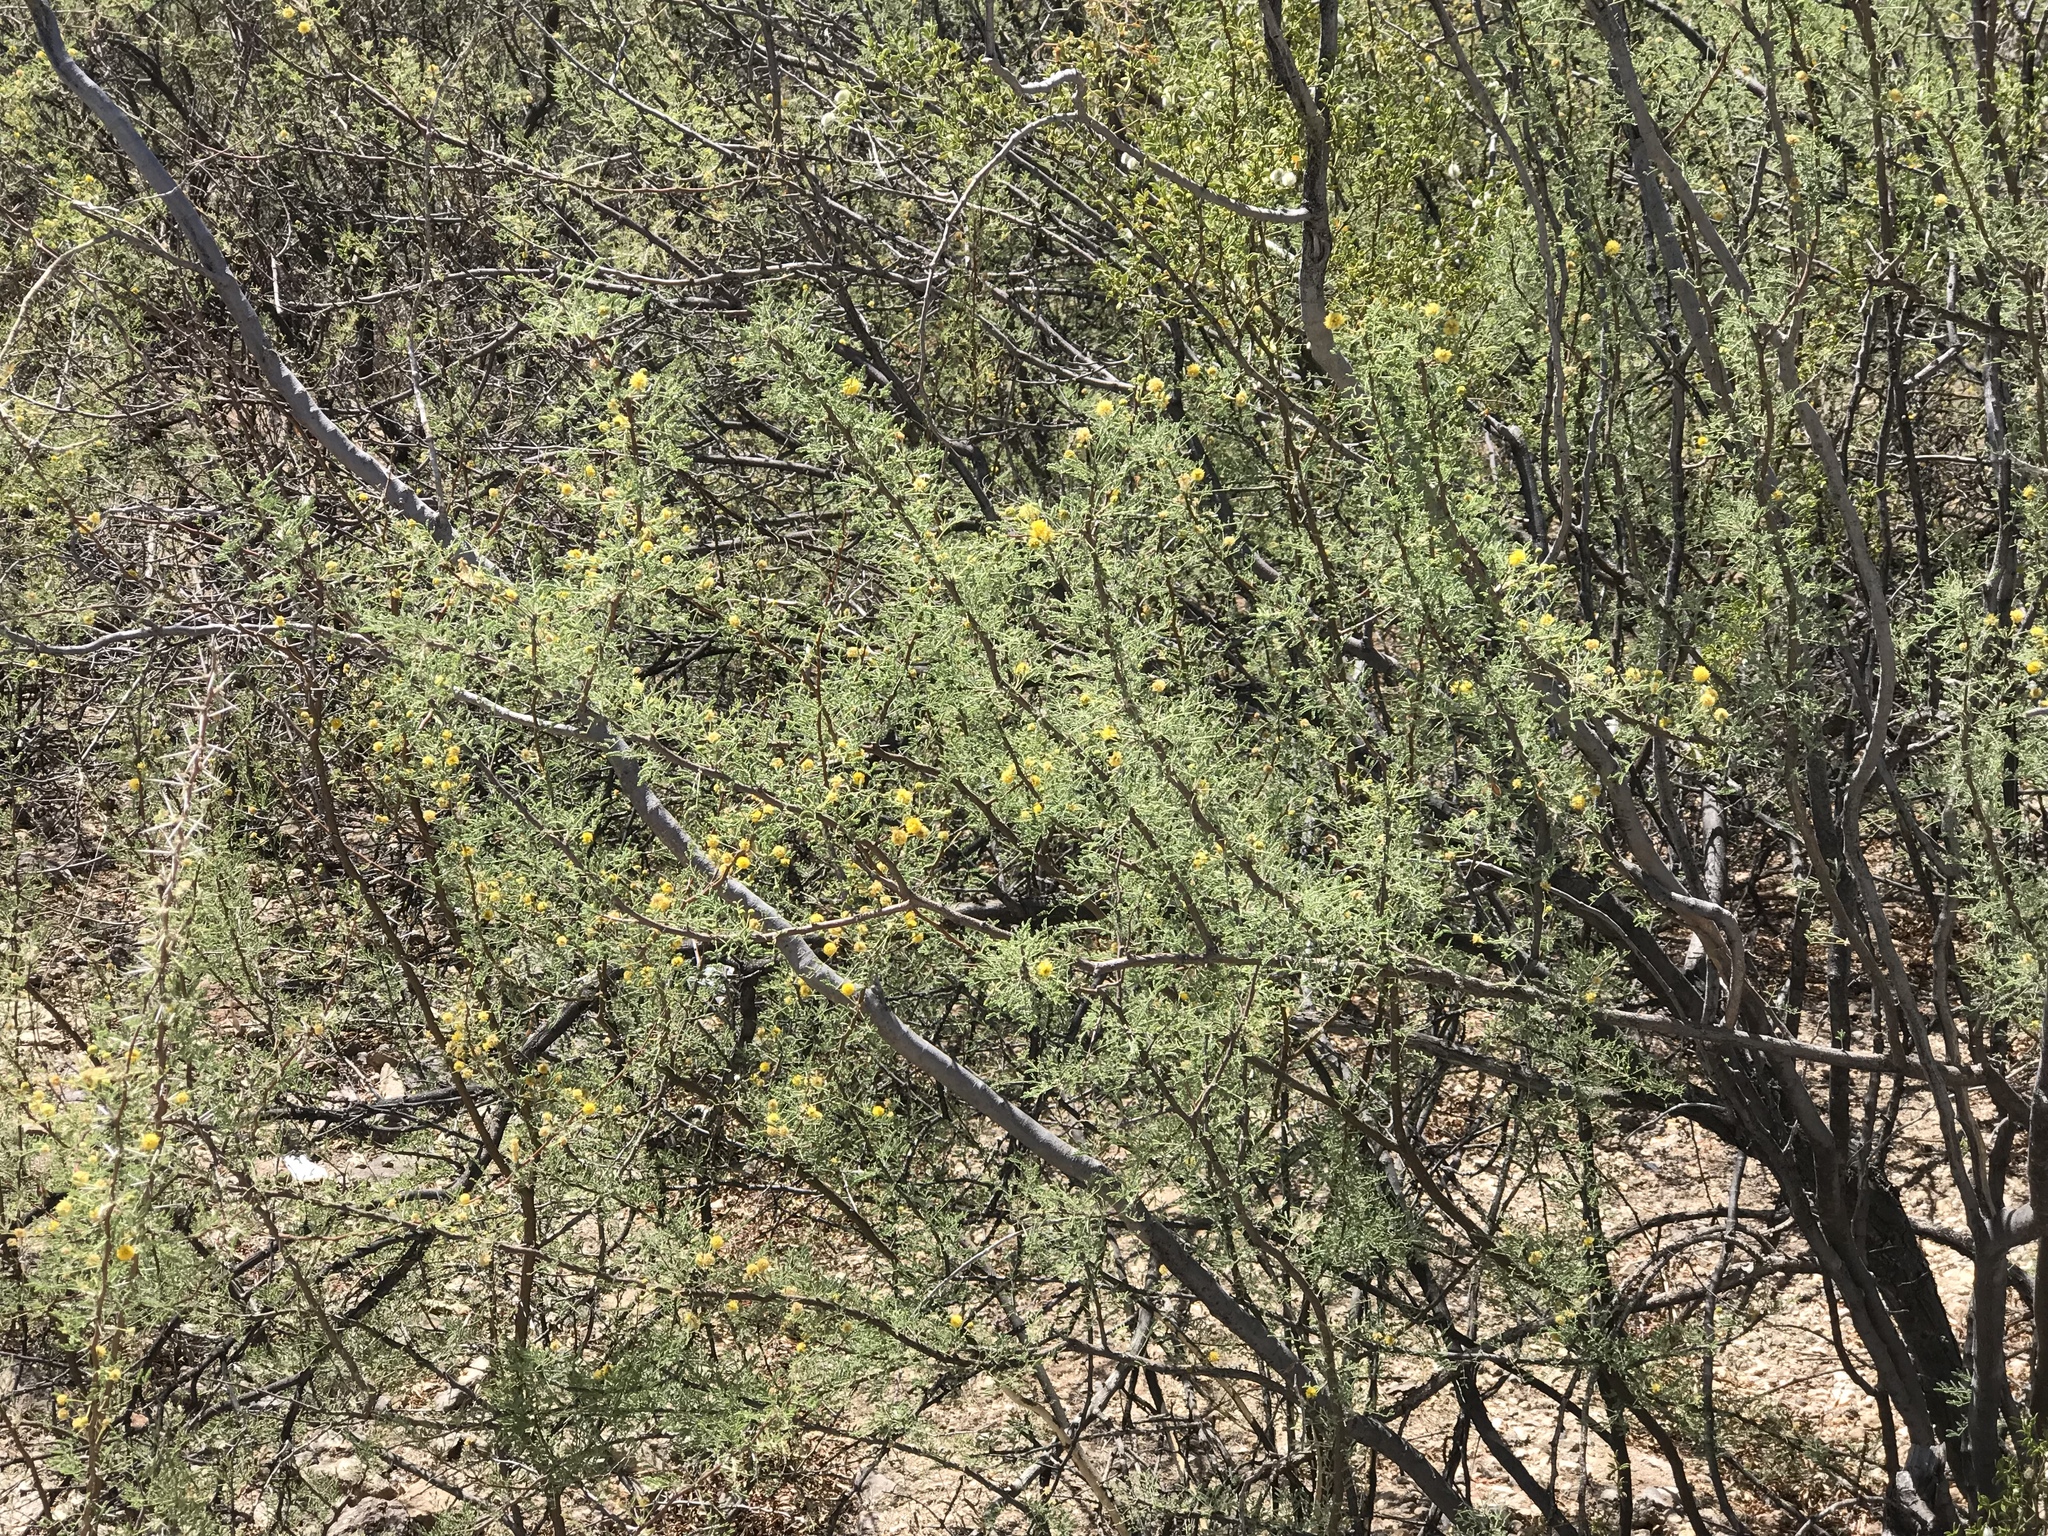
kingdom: Plantae
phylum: Tracheophyta
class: Magnoliopsida
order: Fabales
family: Fabaceae
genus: Vachellia
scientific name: Vachellia constricta
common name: Mescat acacia
